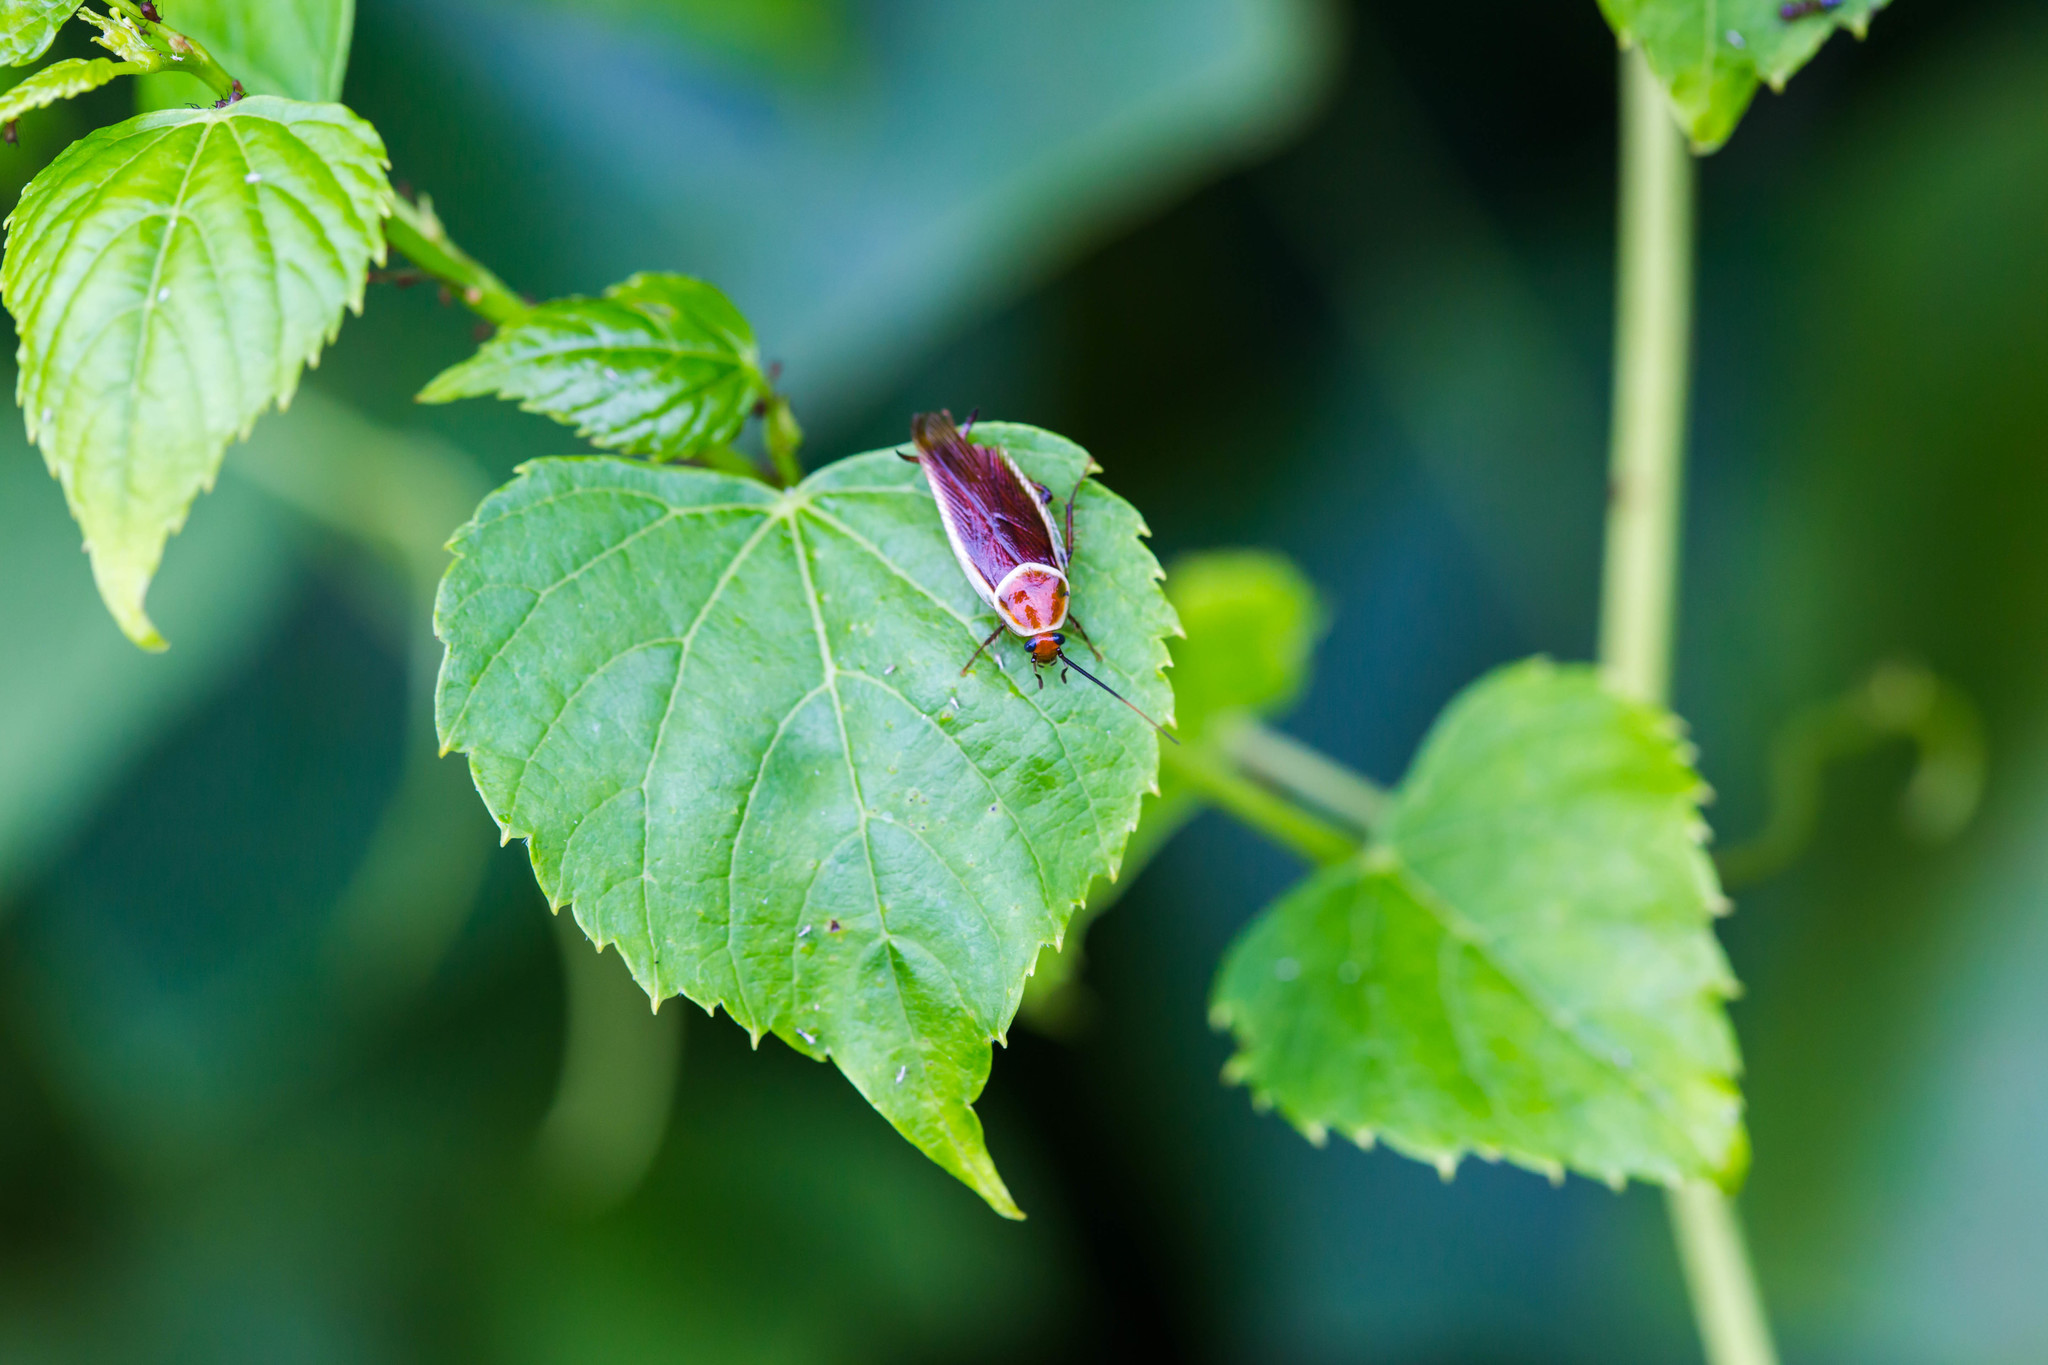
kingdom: Animalia
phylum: Arthropoda
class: Insecta
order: Blattodea
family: Ectobiidae
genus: Pseudomops
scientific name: Pseudomops septentrionalis
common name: Pale-bordered field cockroach
